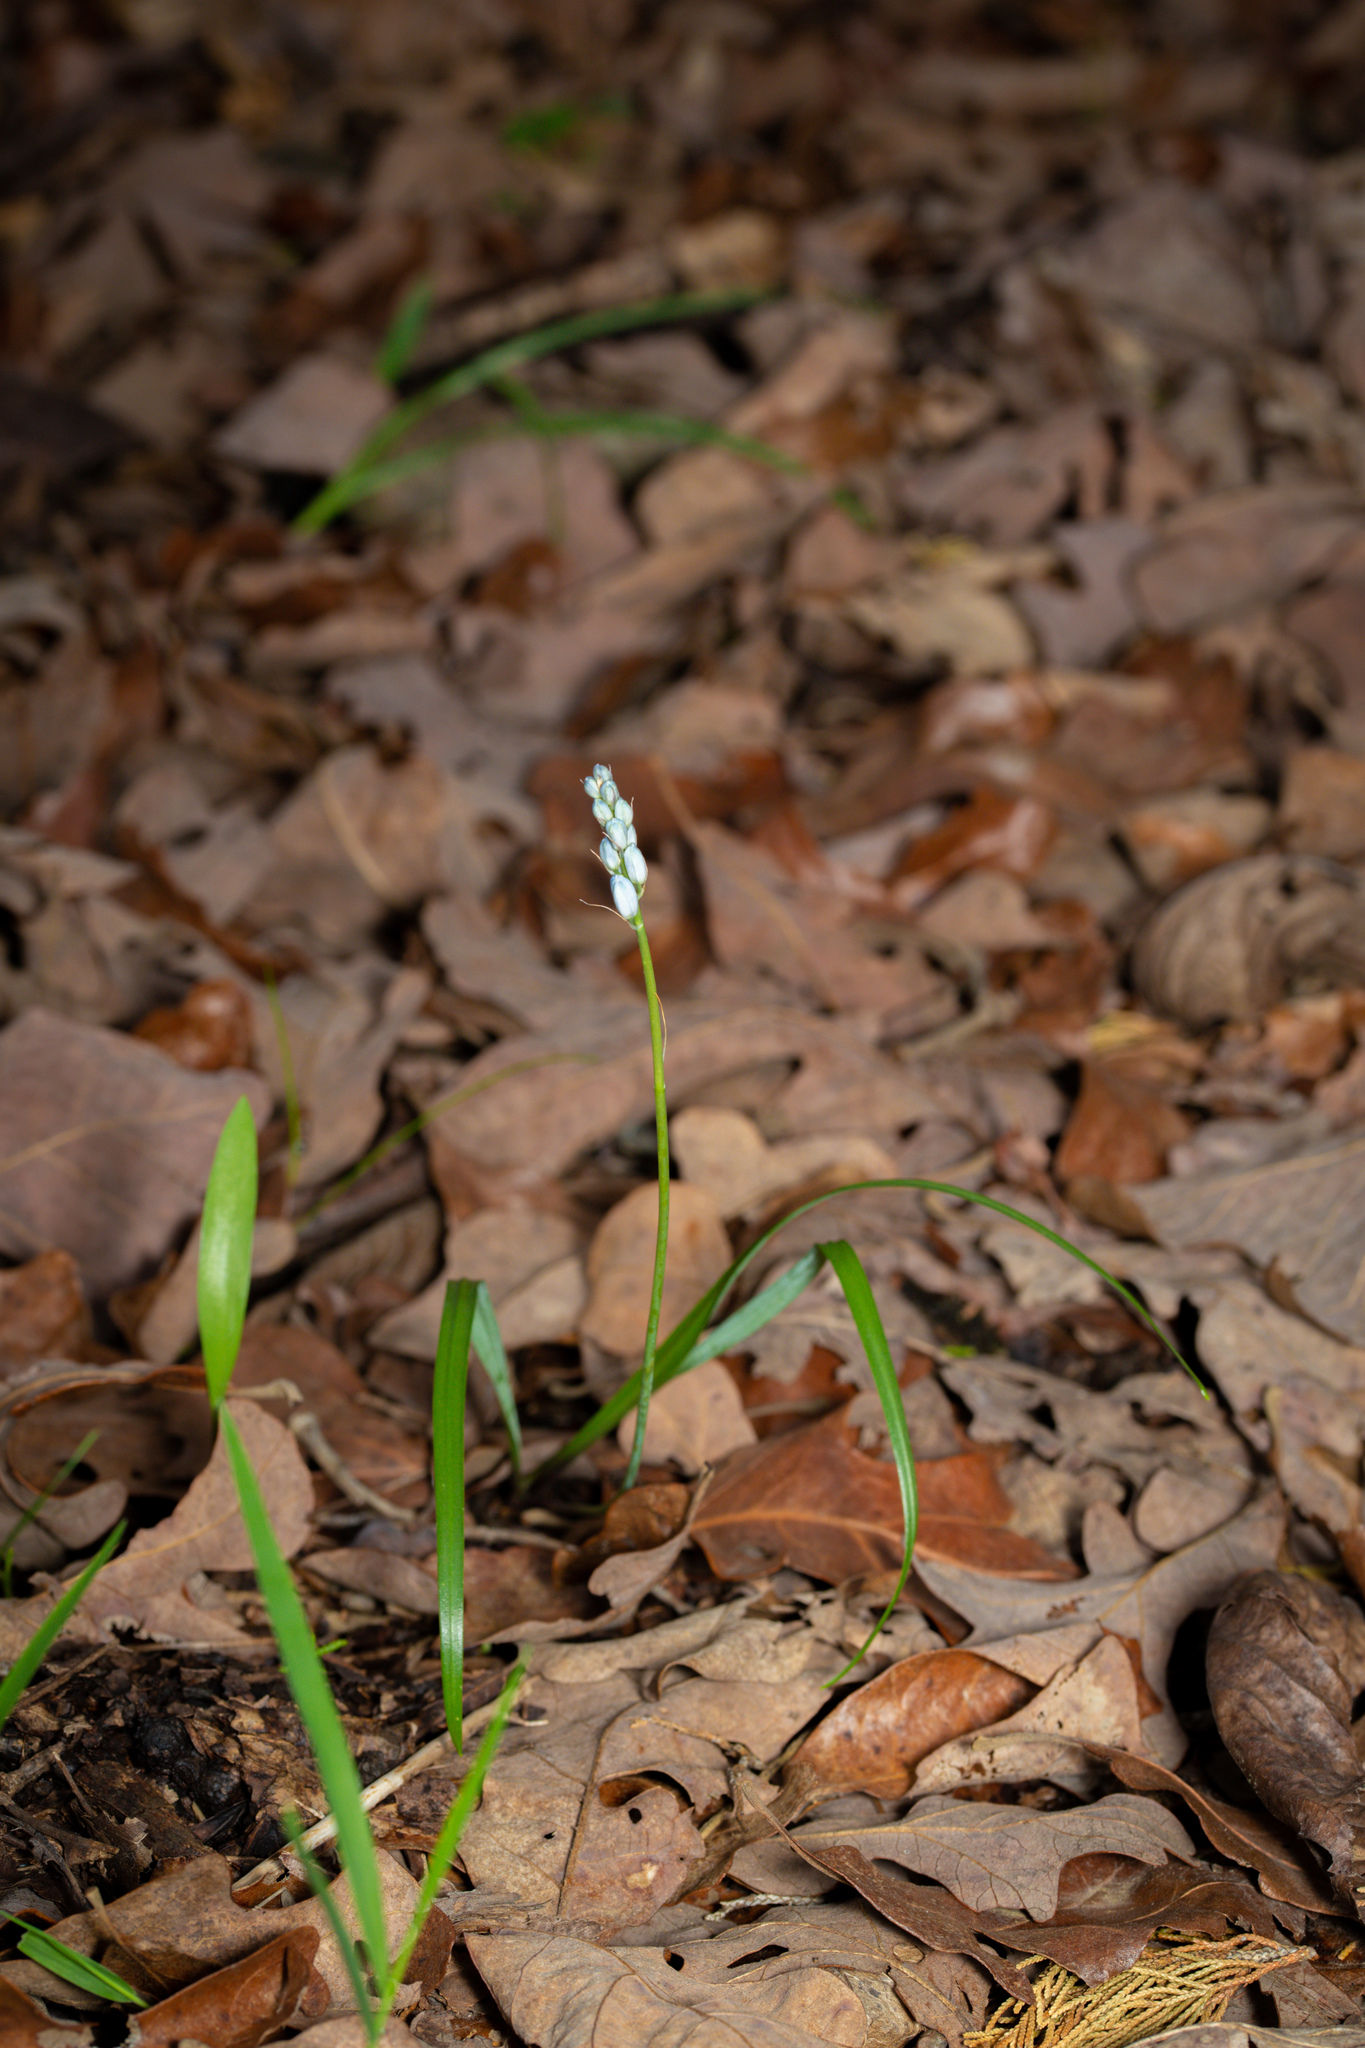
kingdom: Plantae
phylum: Tracheophyta
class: Liliopsida
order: Asparagales
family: Asparagaceae
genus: Camassia
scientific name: Camassia scilloides
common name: Wild hyacinth
